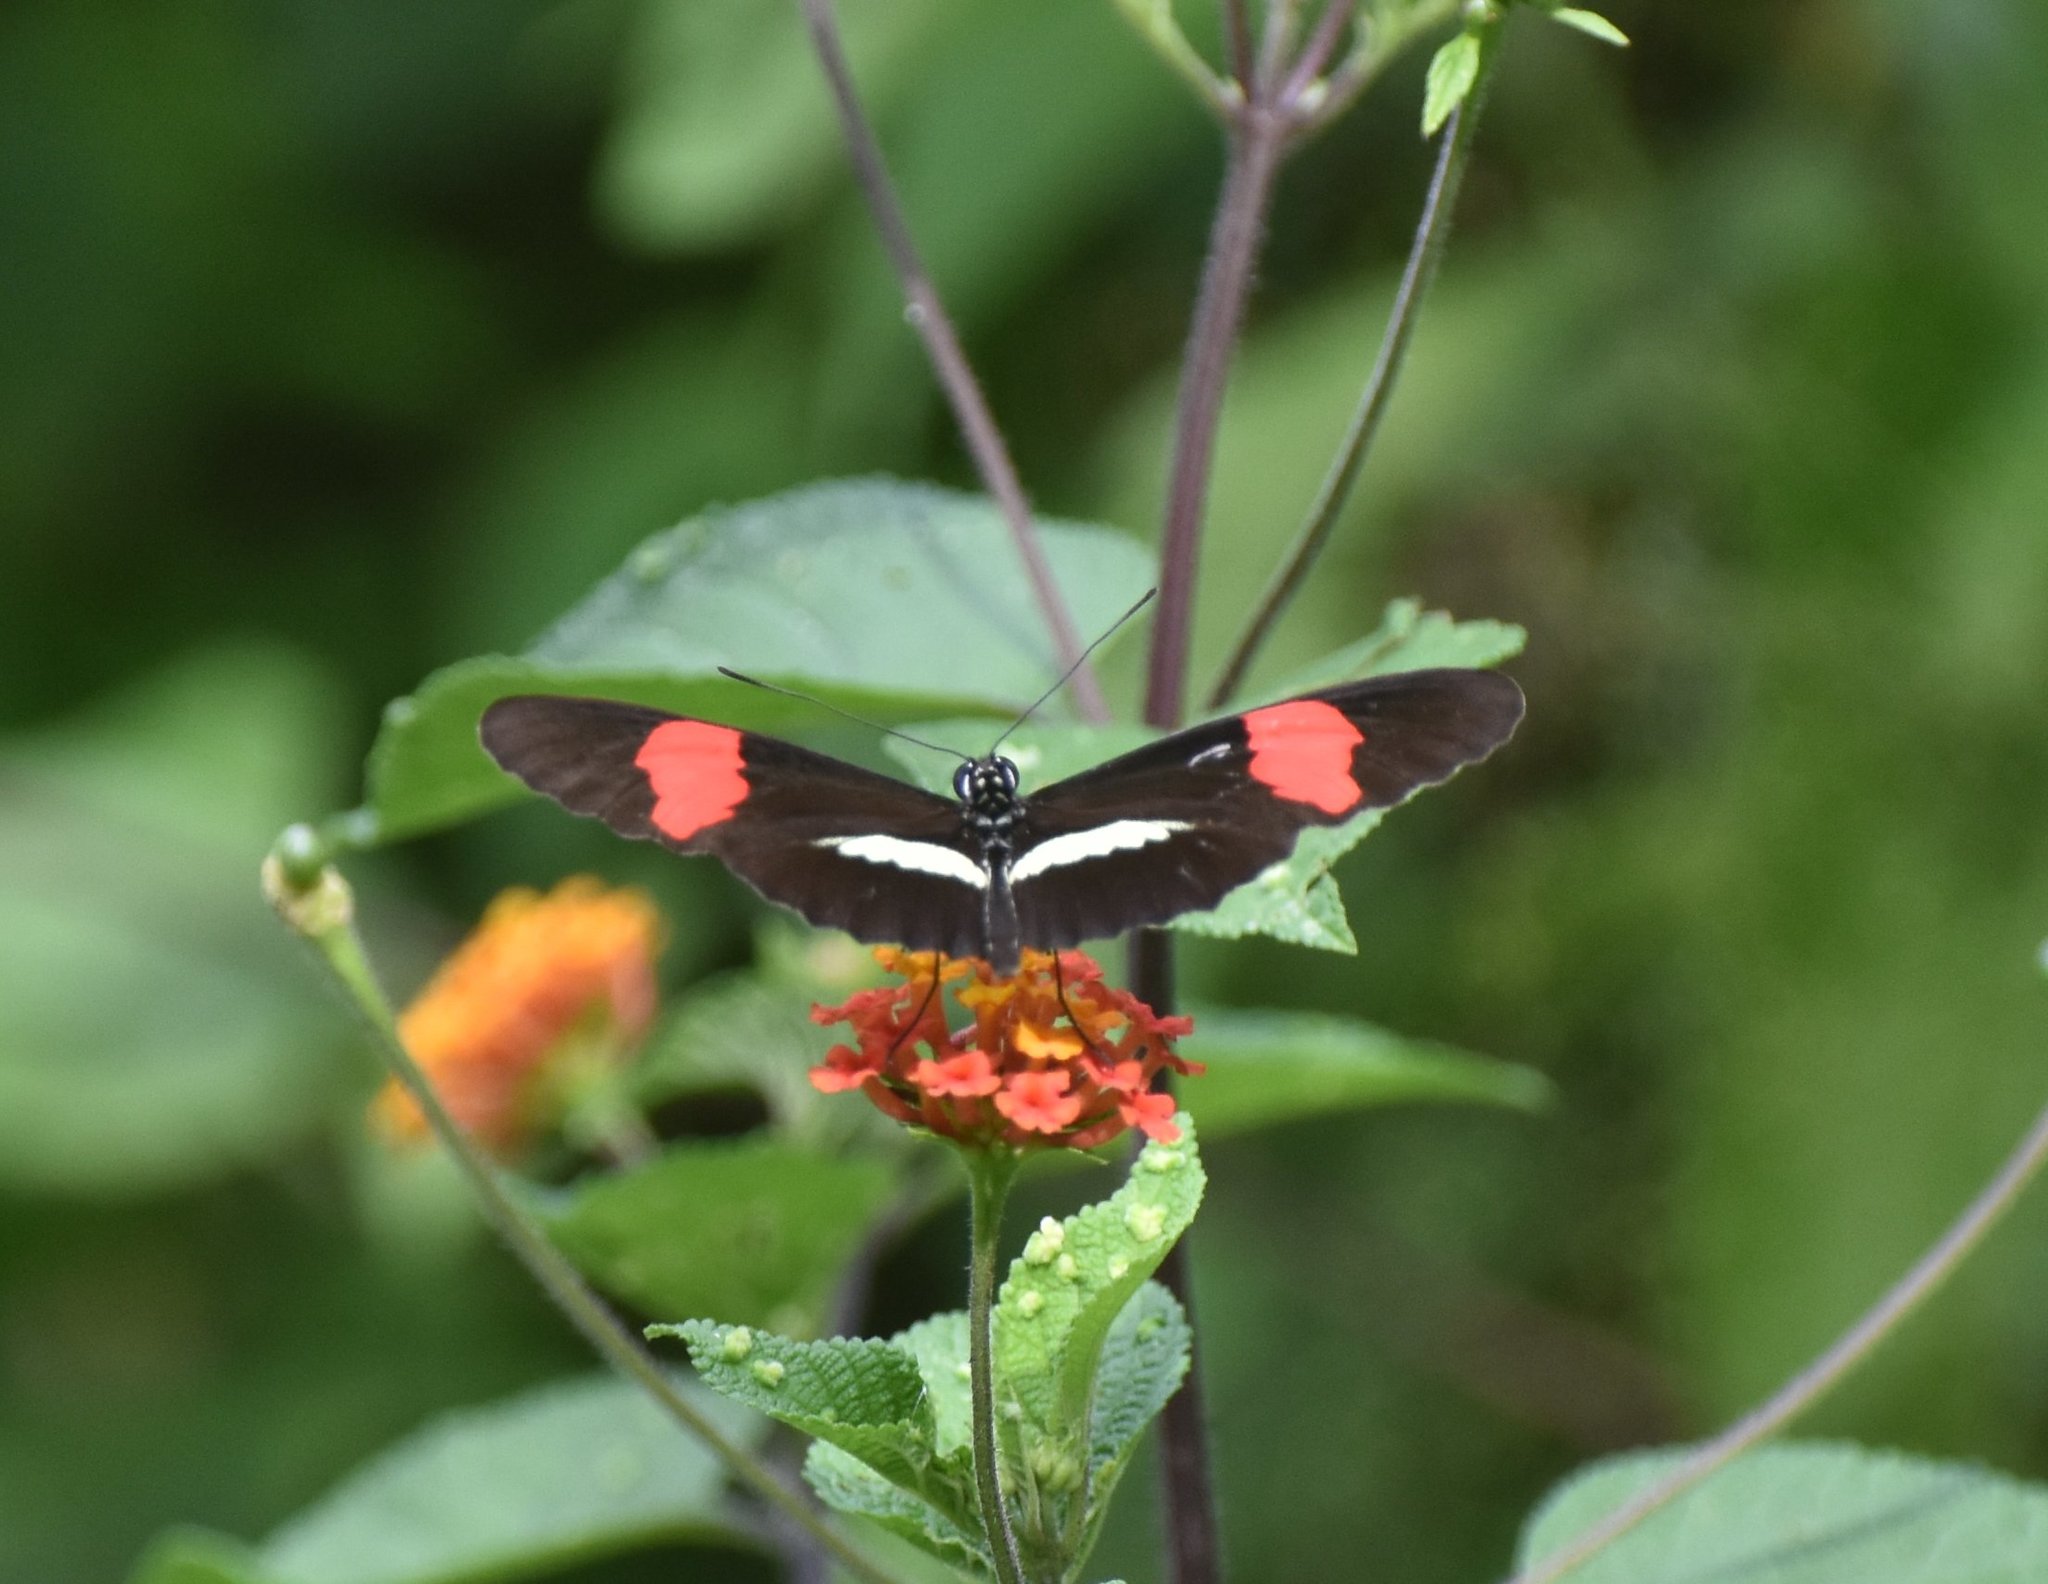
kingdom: Animalia
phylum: Arthropoda
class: Insecta
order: Lepidoptera
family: Nymphalidae
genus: Tirumala
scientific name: Tirumala petiverana
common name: Blue monarch
